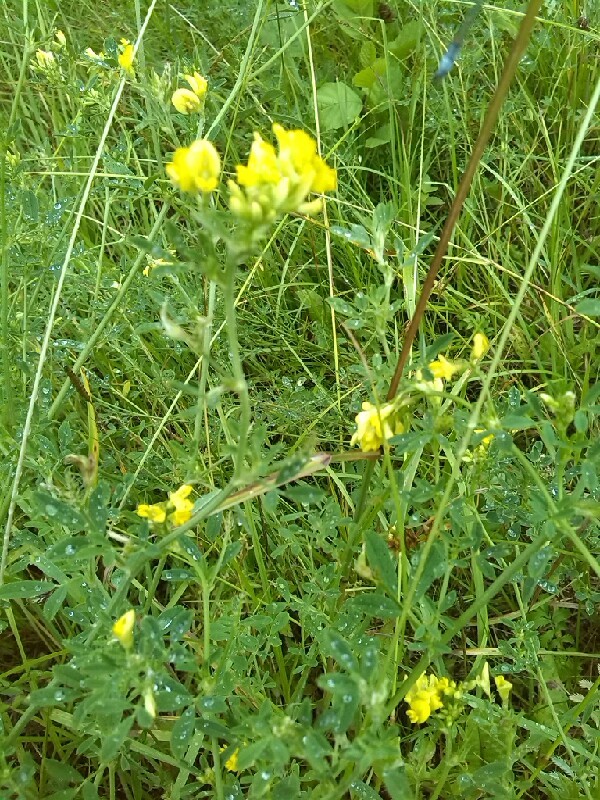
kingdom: Plantae
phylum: Tracheophyta
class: Magnoliopsida
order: Fabales
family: Fabaceae
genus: Medicago
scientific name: Medicago falcata
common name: Sickle medick
